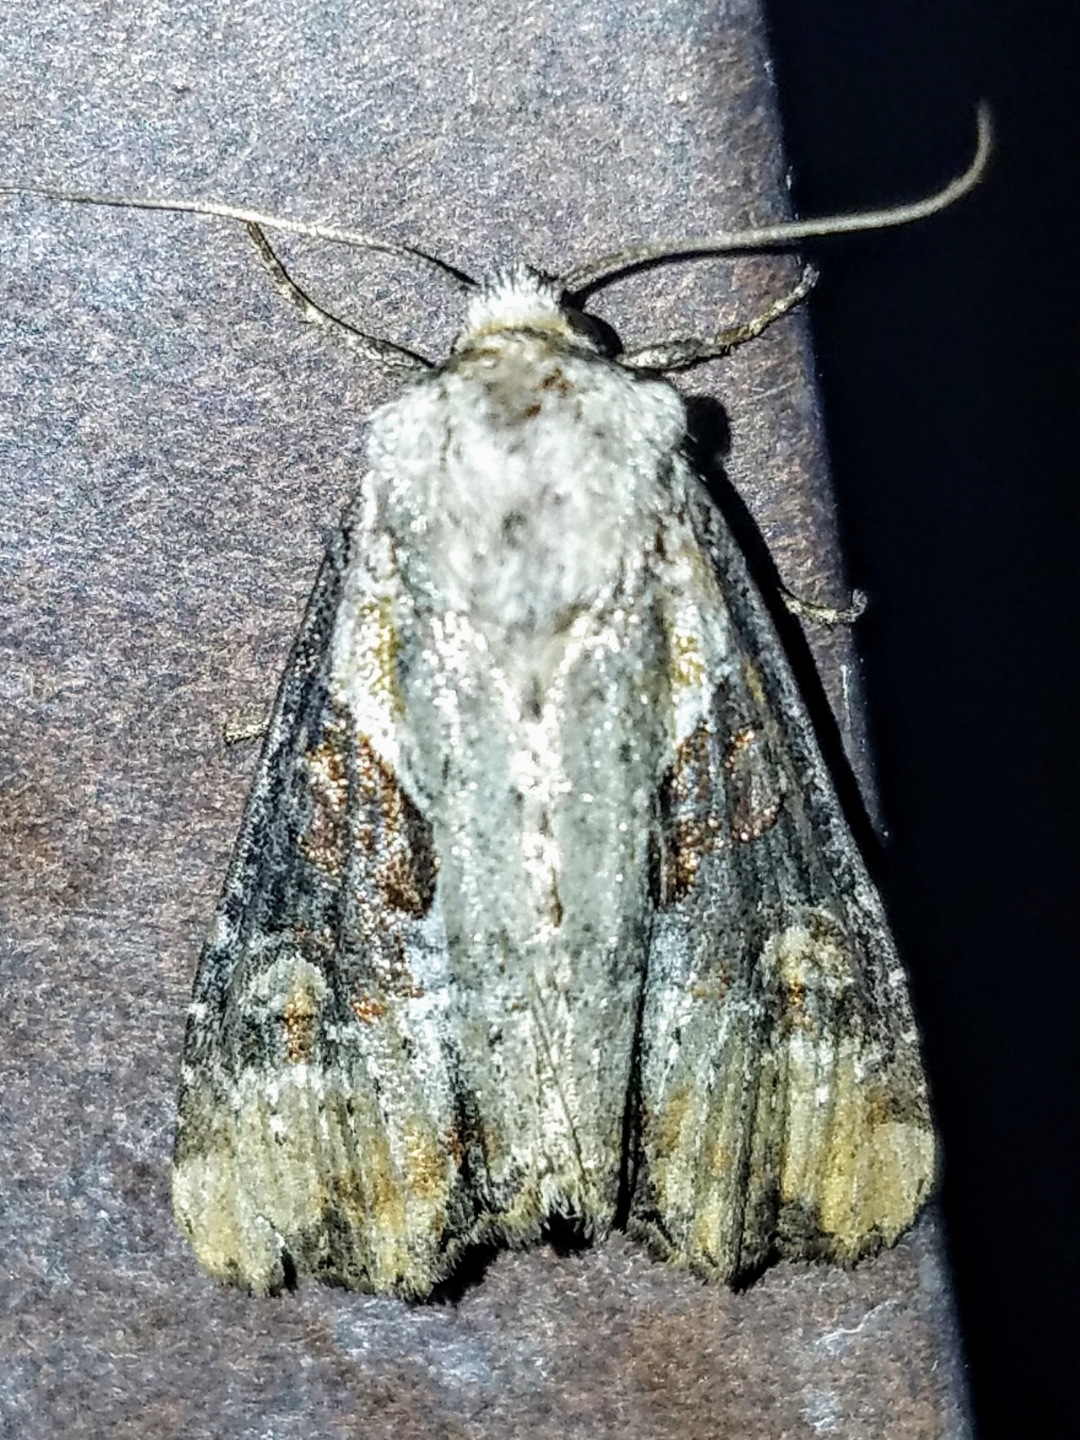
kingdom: Animalia
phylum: Arthropoda
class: Insecta
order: Lepidoptera
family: Noctuidae
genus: Lateroligia
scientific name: Lateroligia ophiogramma
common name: Double lobed
